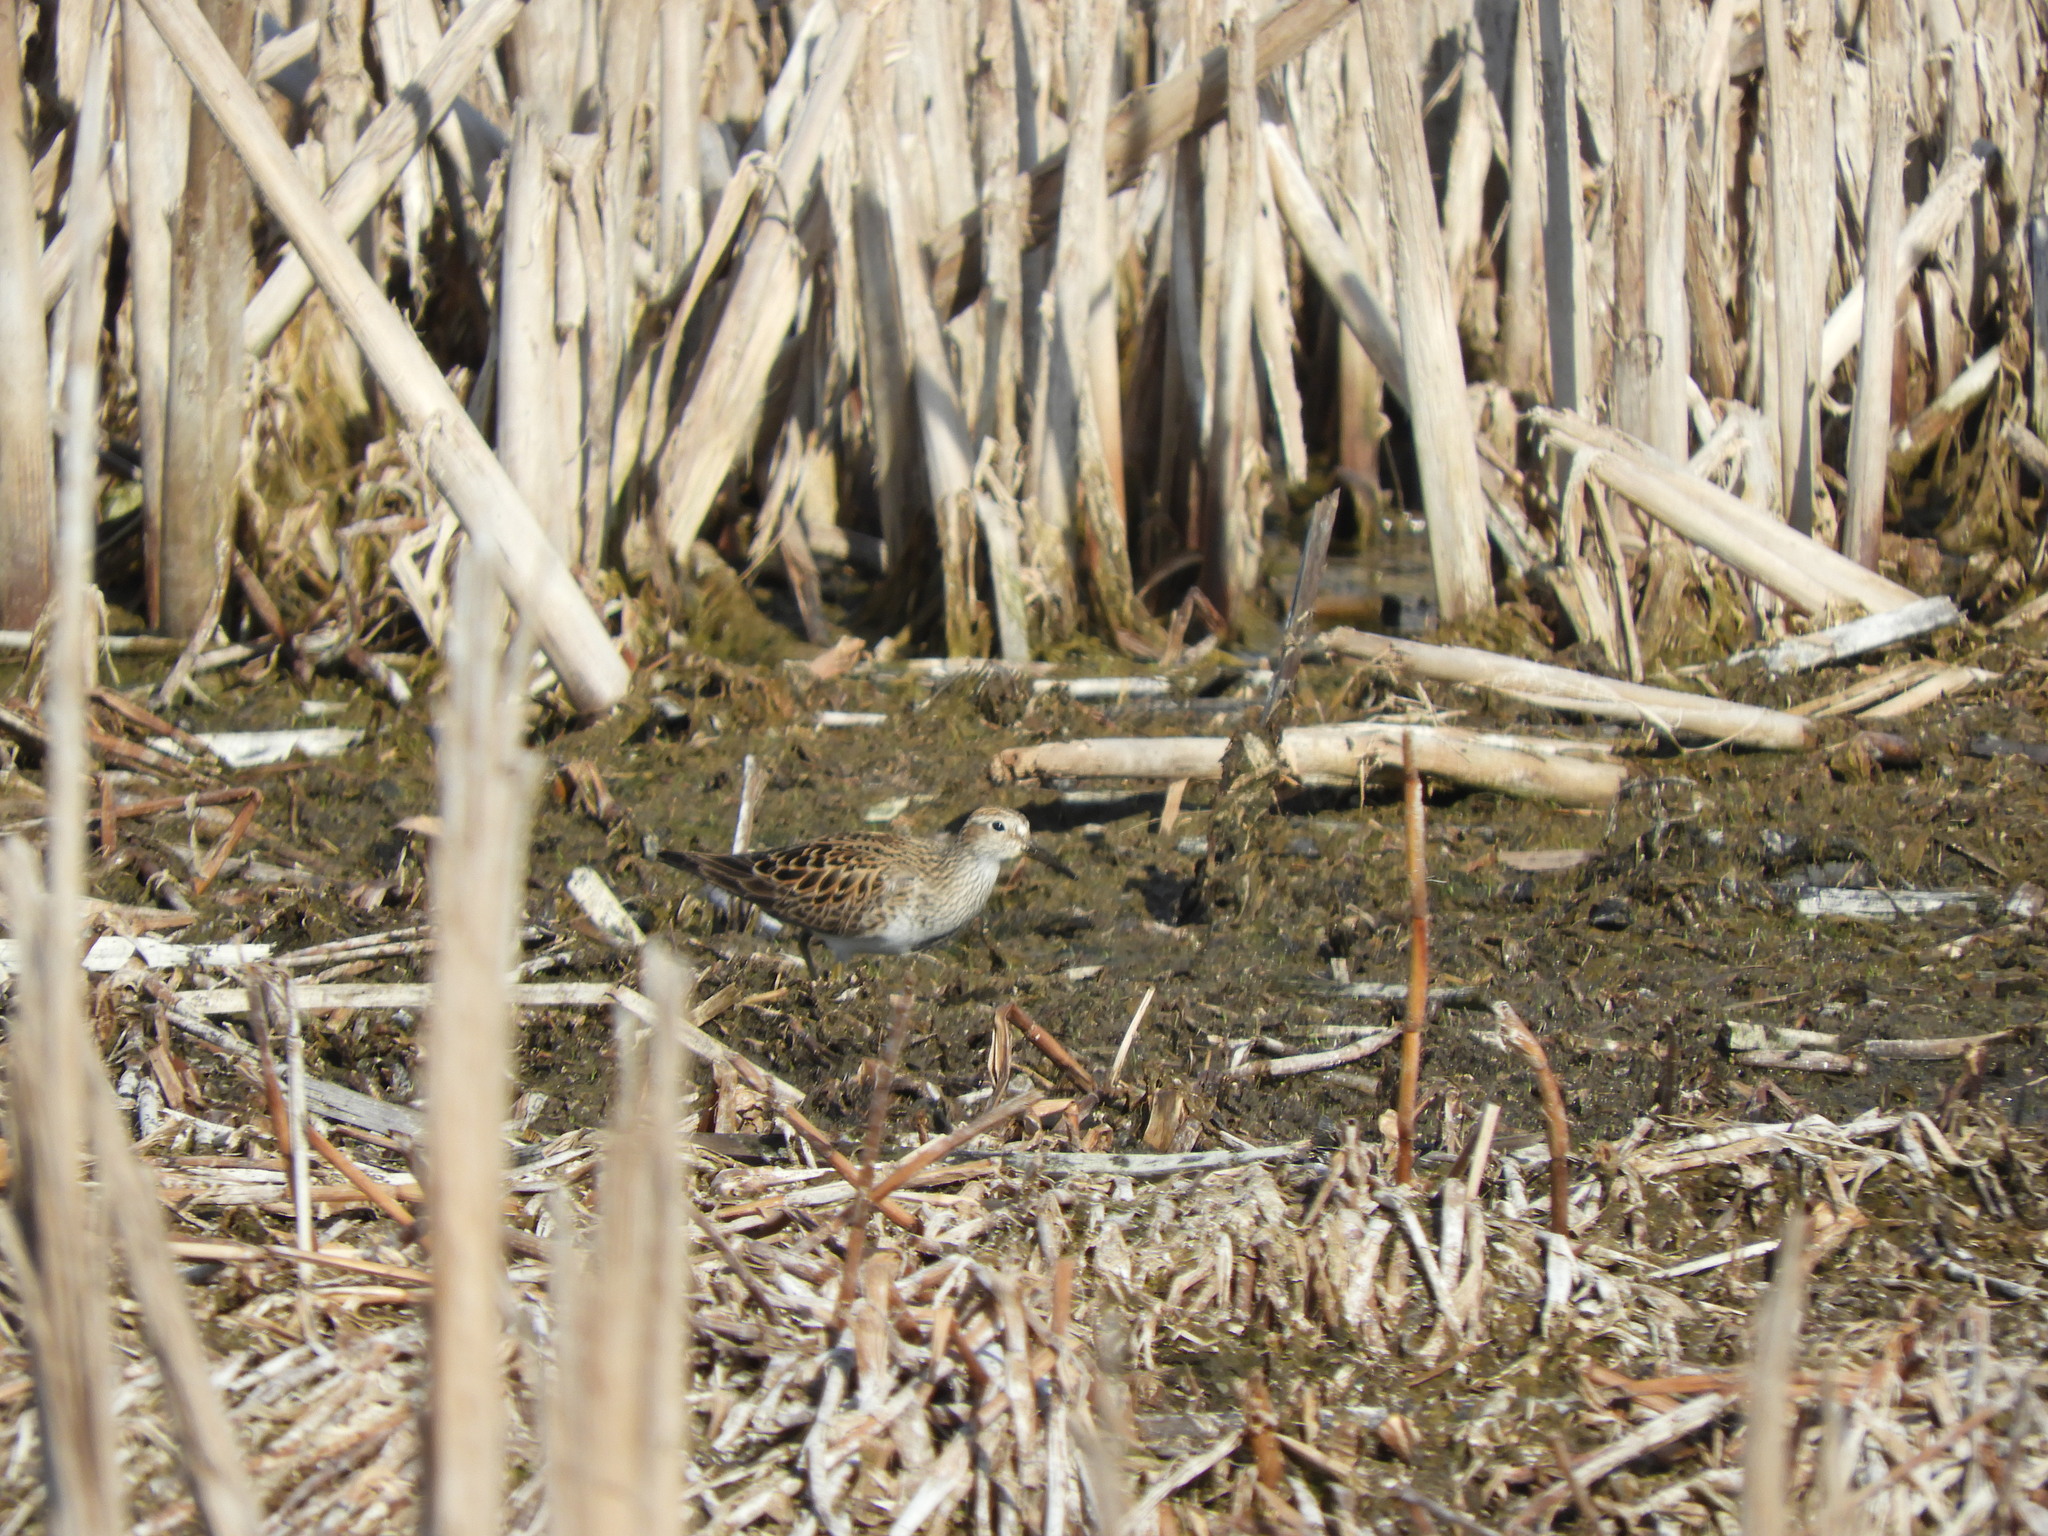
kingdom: Animalia
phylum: Chordata
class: Aves
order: Charadriiformes
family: Scolopacidae
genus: Calidris
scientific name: Calidris melanotos
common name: Pectoral sandpiper
